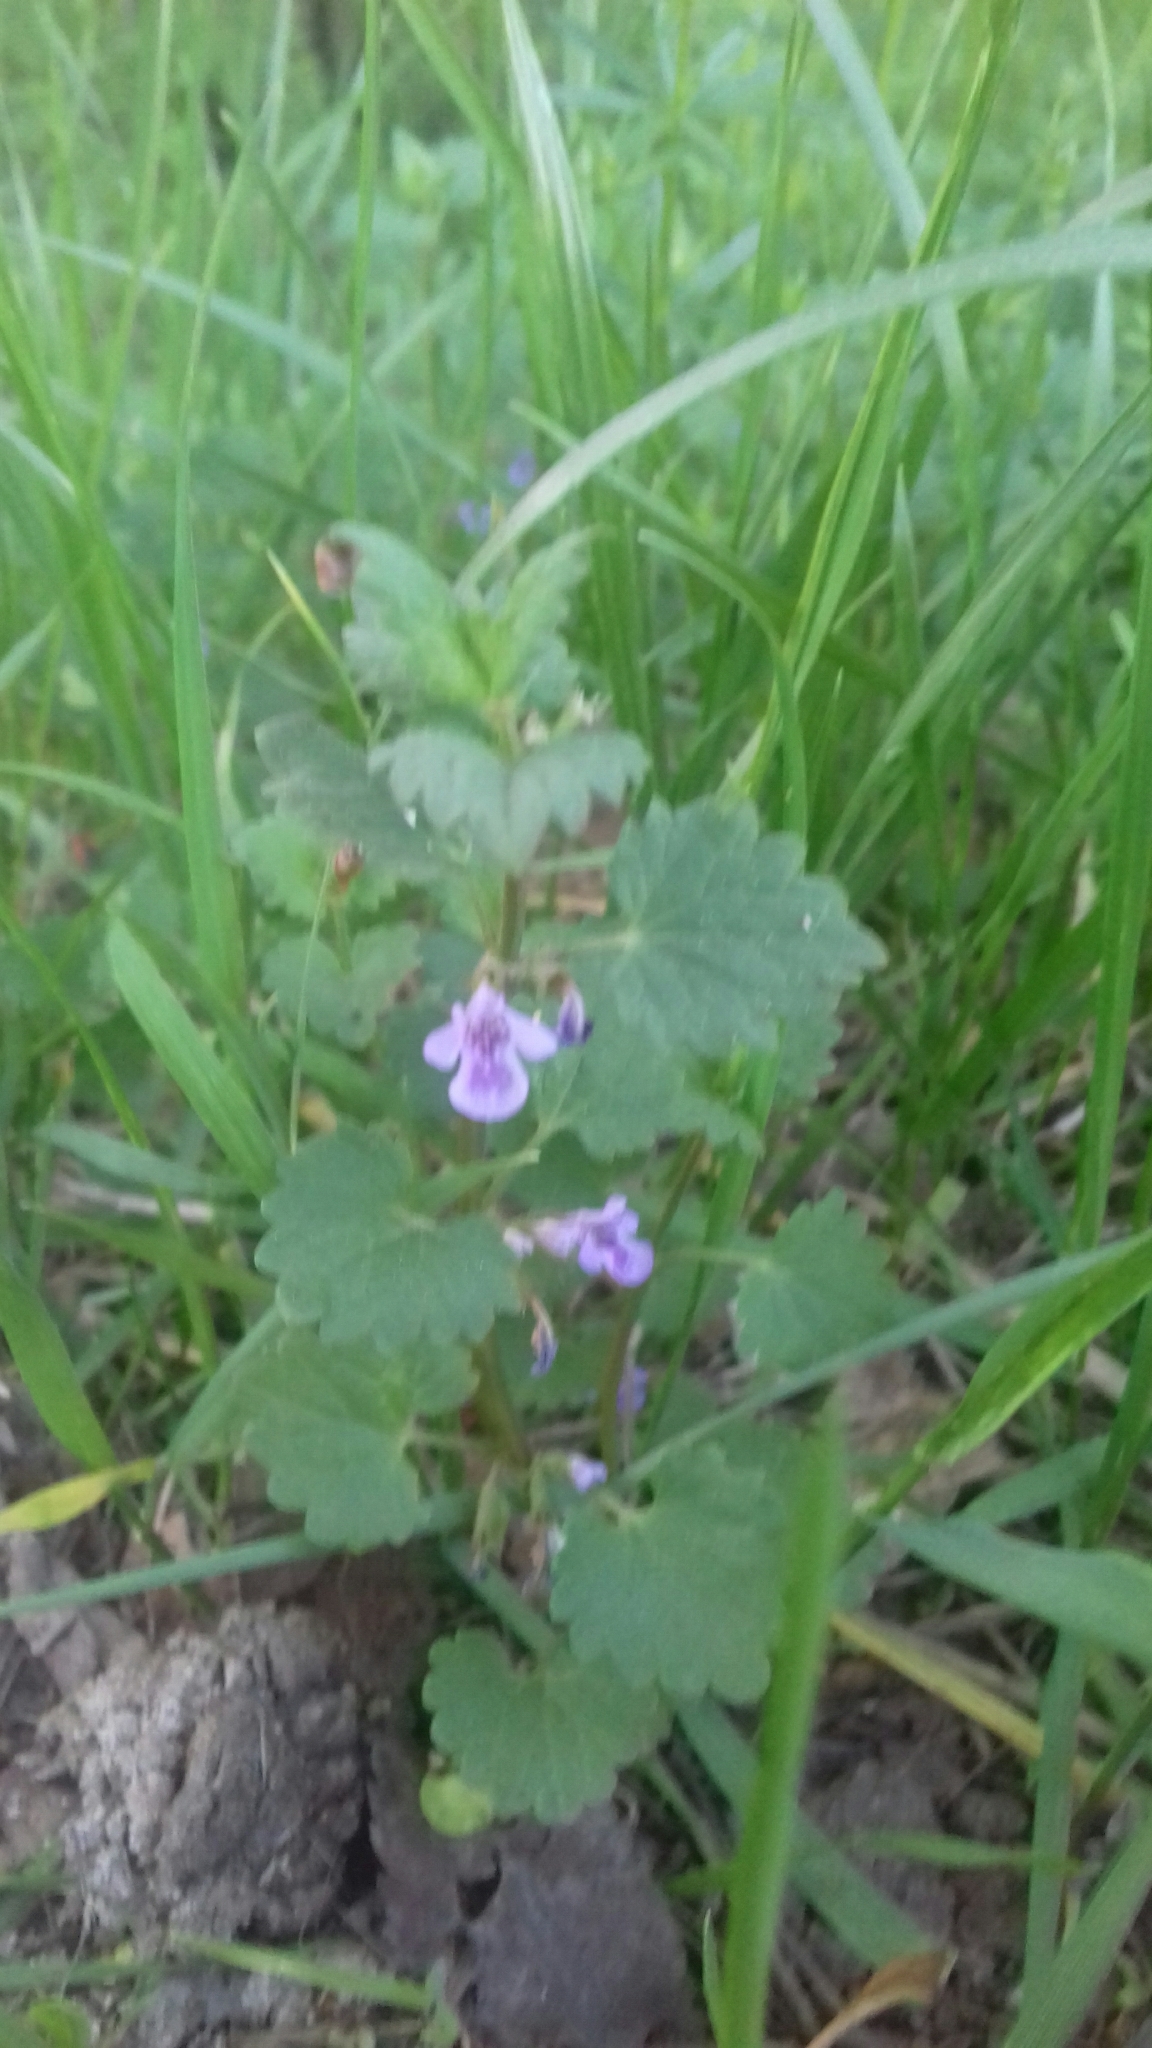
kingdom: Plantae
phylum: Tracheophyta
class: Magnoliopsida
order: Lamiales
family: Lamiaceae
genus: Glechoma
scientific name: Glechoma hederacea
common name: Ground ivy
